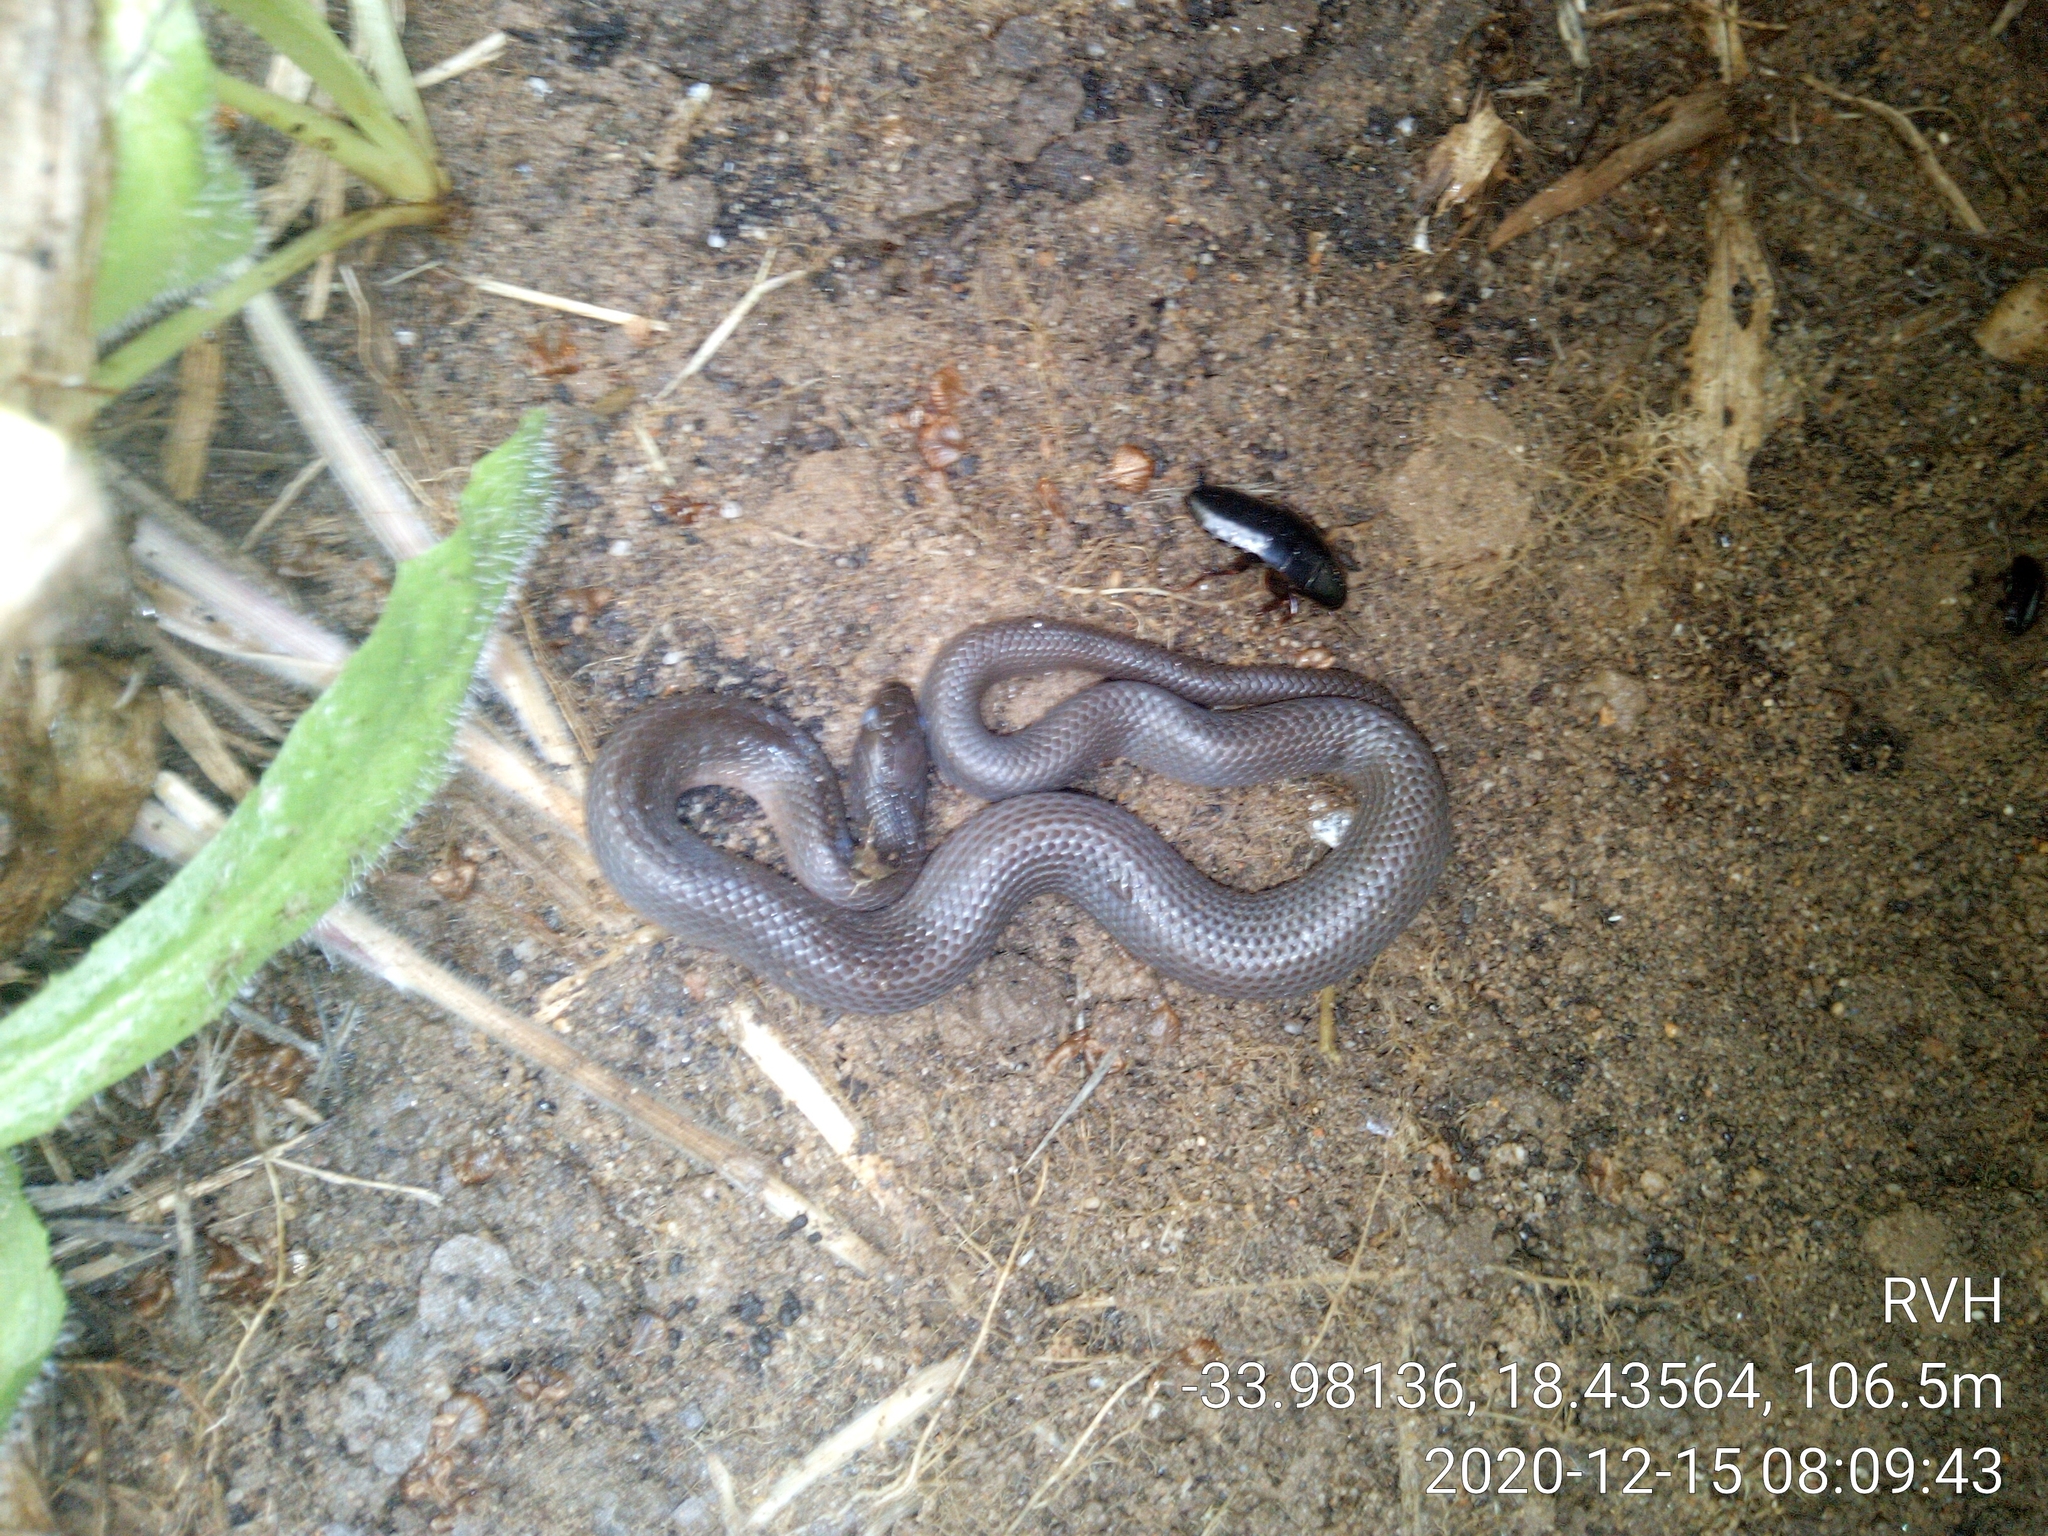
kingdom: Animalia
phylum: Chordata
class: Squamata
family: Lamprophiidae
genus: Lycodonomorphus
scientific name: Lycodonomorphus rufulus
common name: Brown water snake
